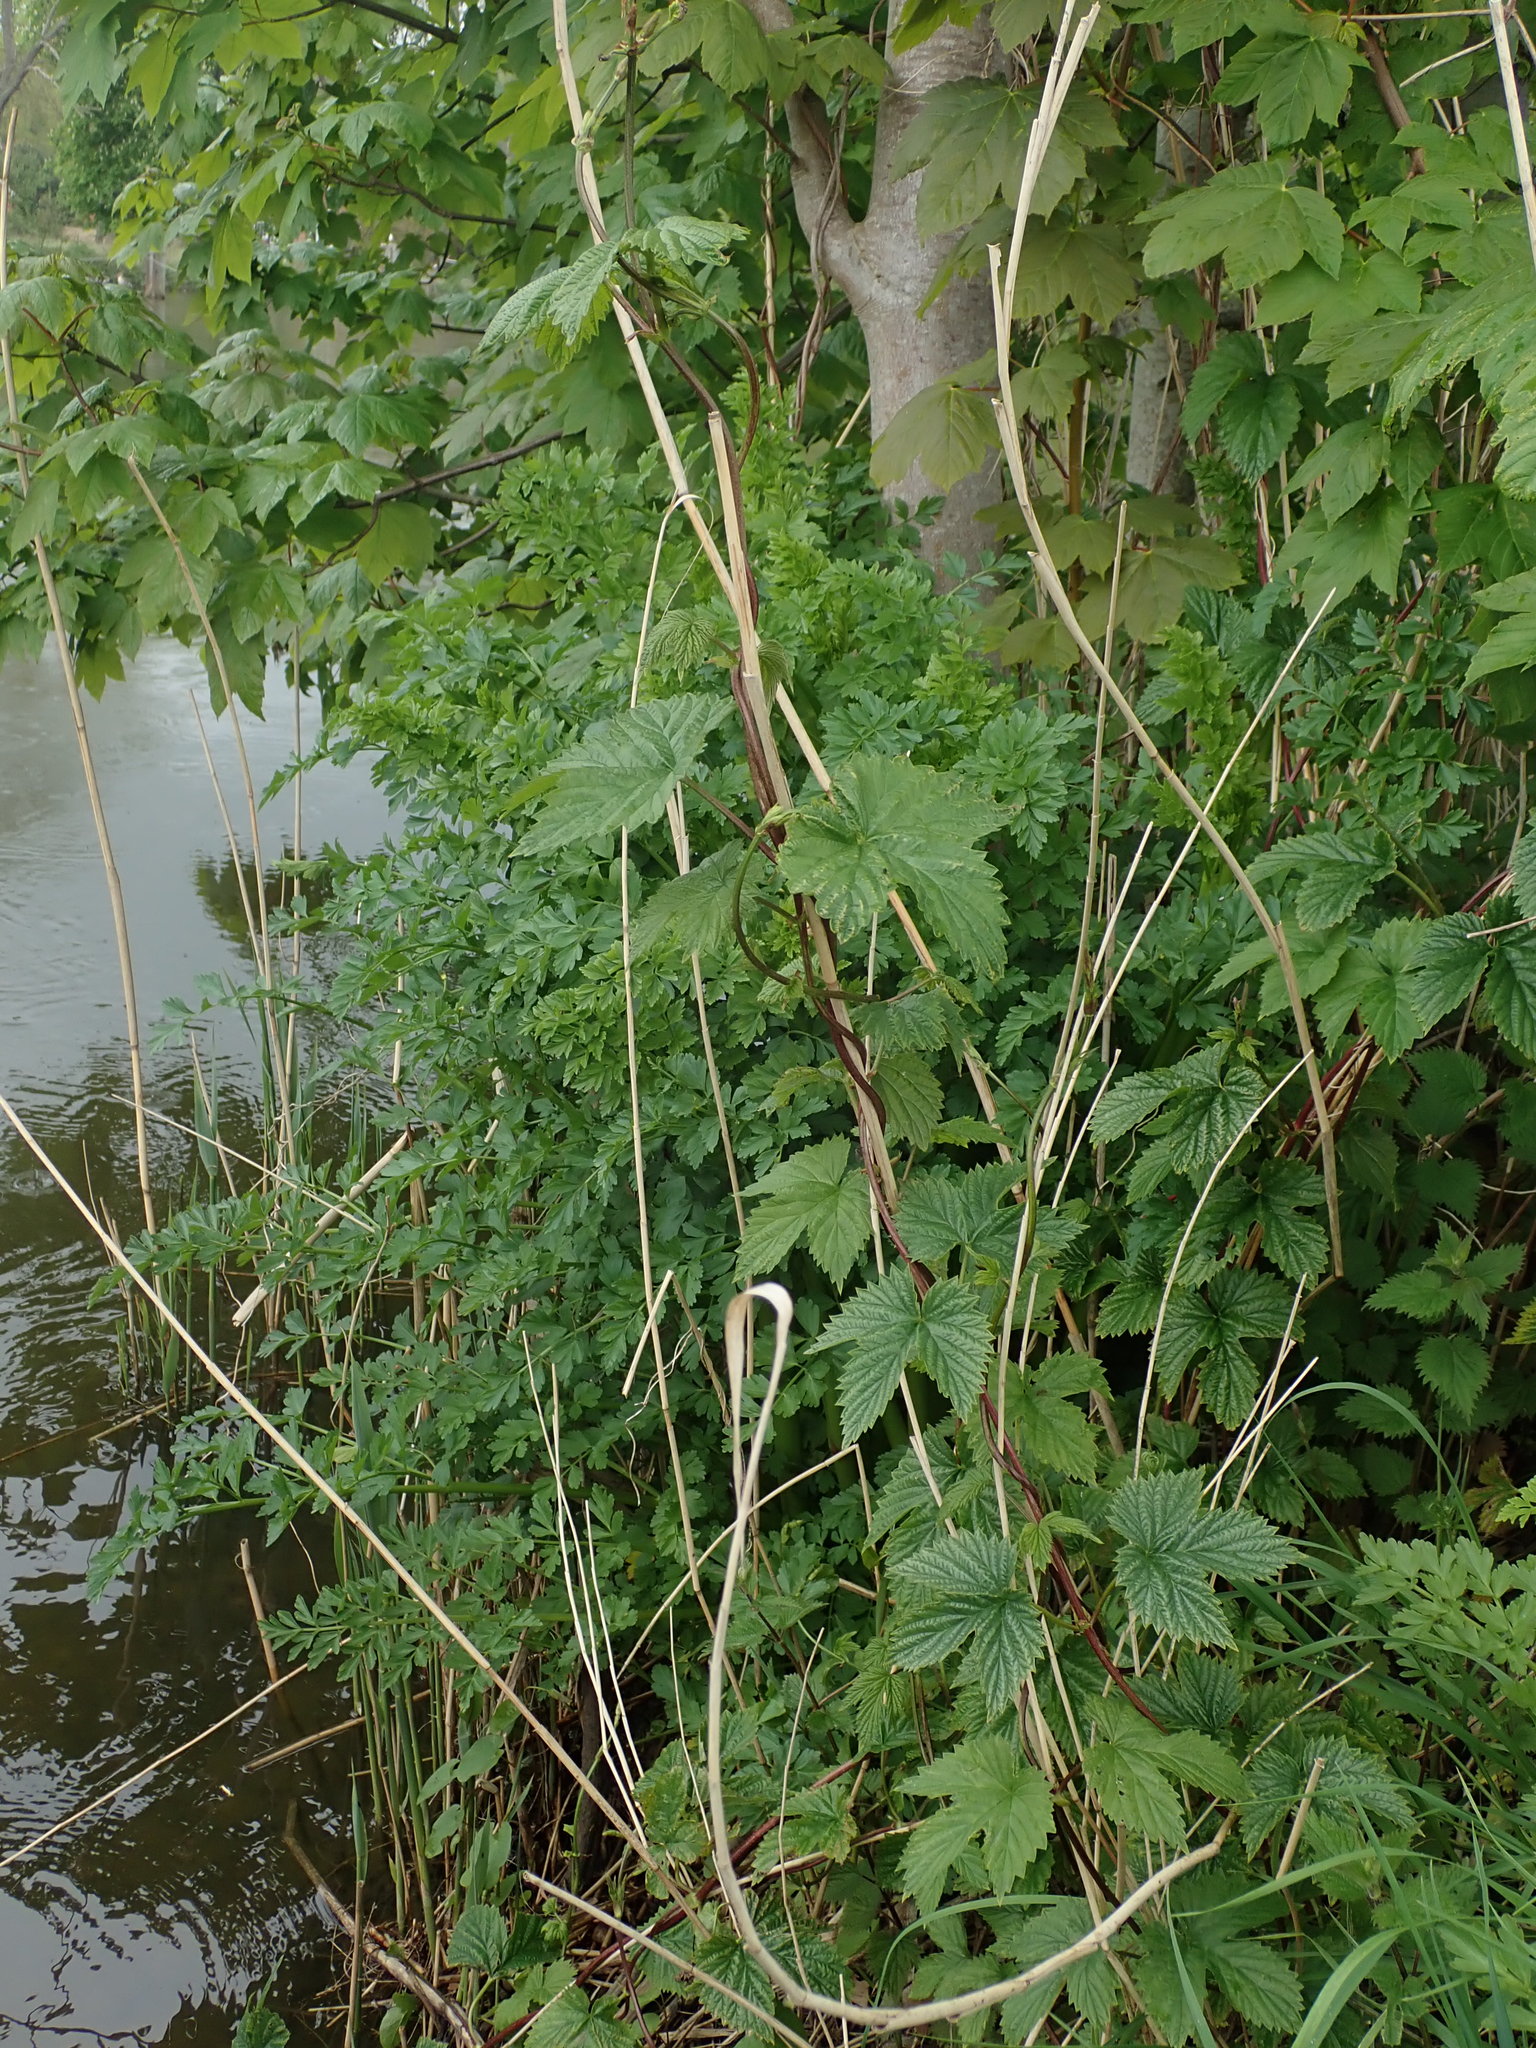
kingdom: Plantae
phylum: Tracheophyta
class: Magnoliopsida
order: Rosales
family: Cannabaceae
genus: Humulus
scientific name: Humulus lupulus
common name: Hop
